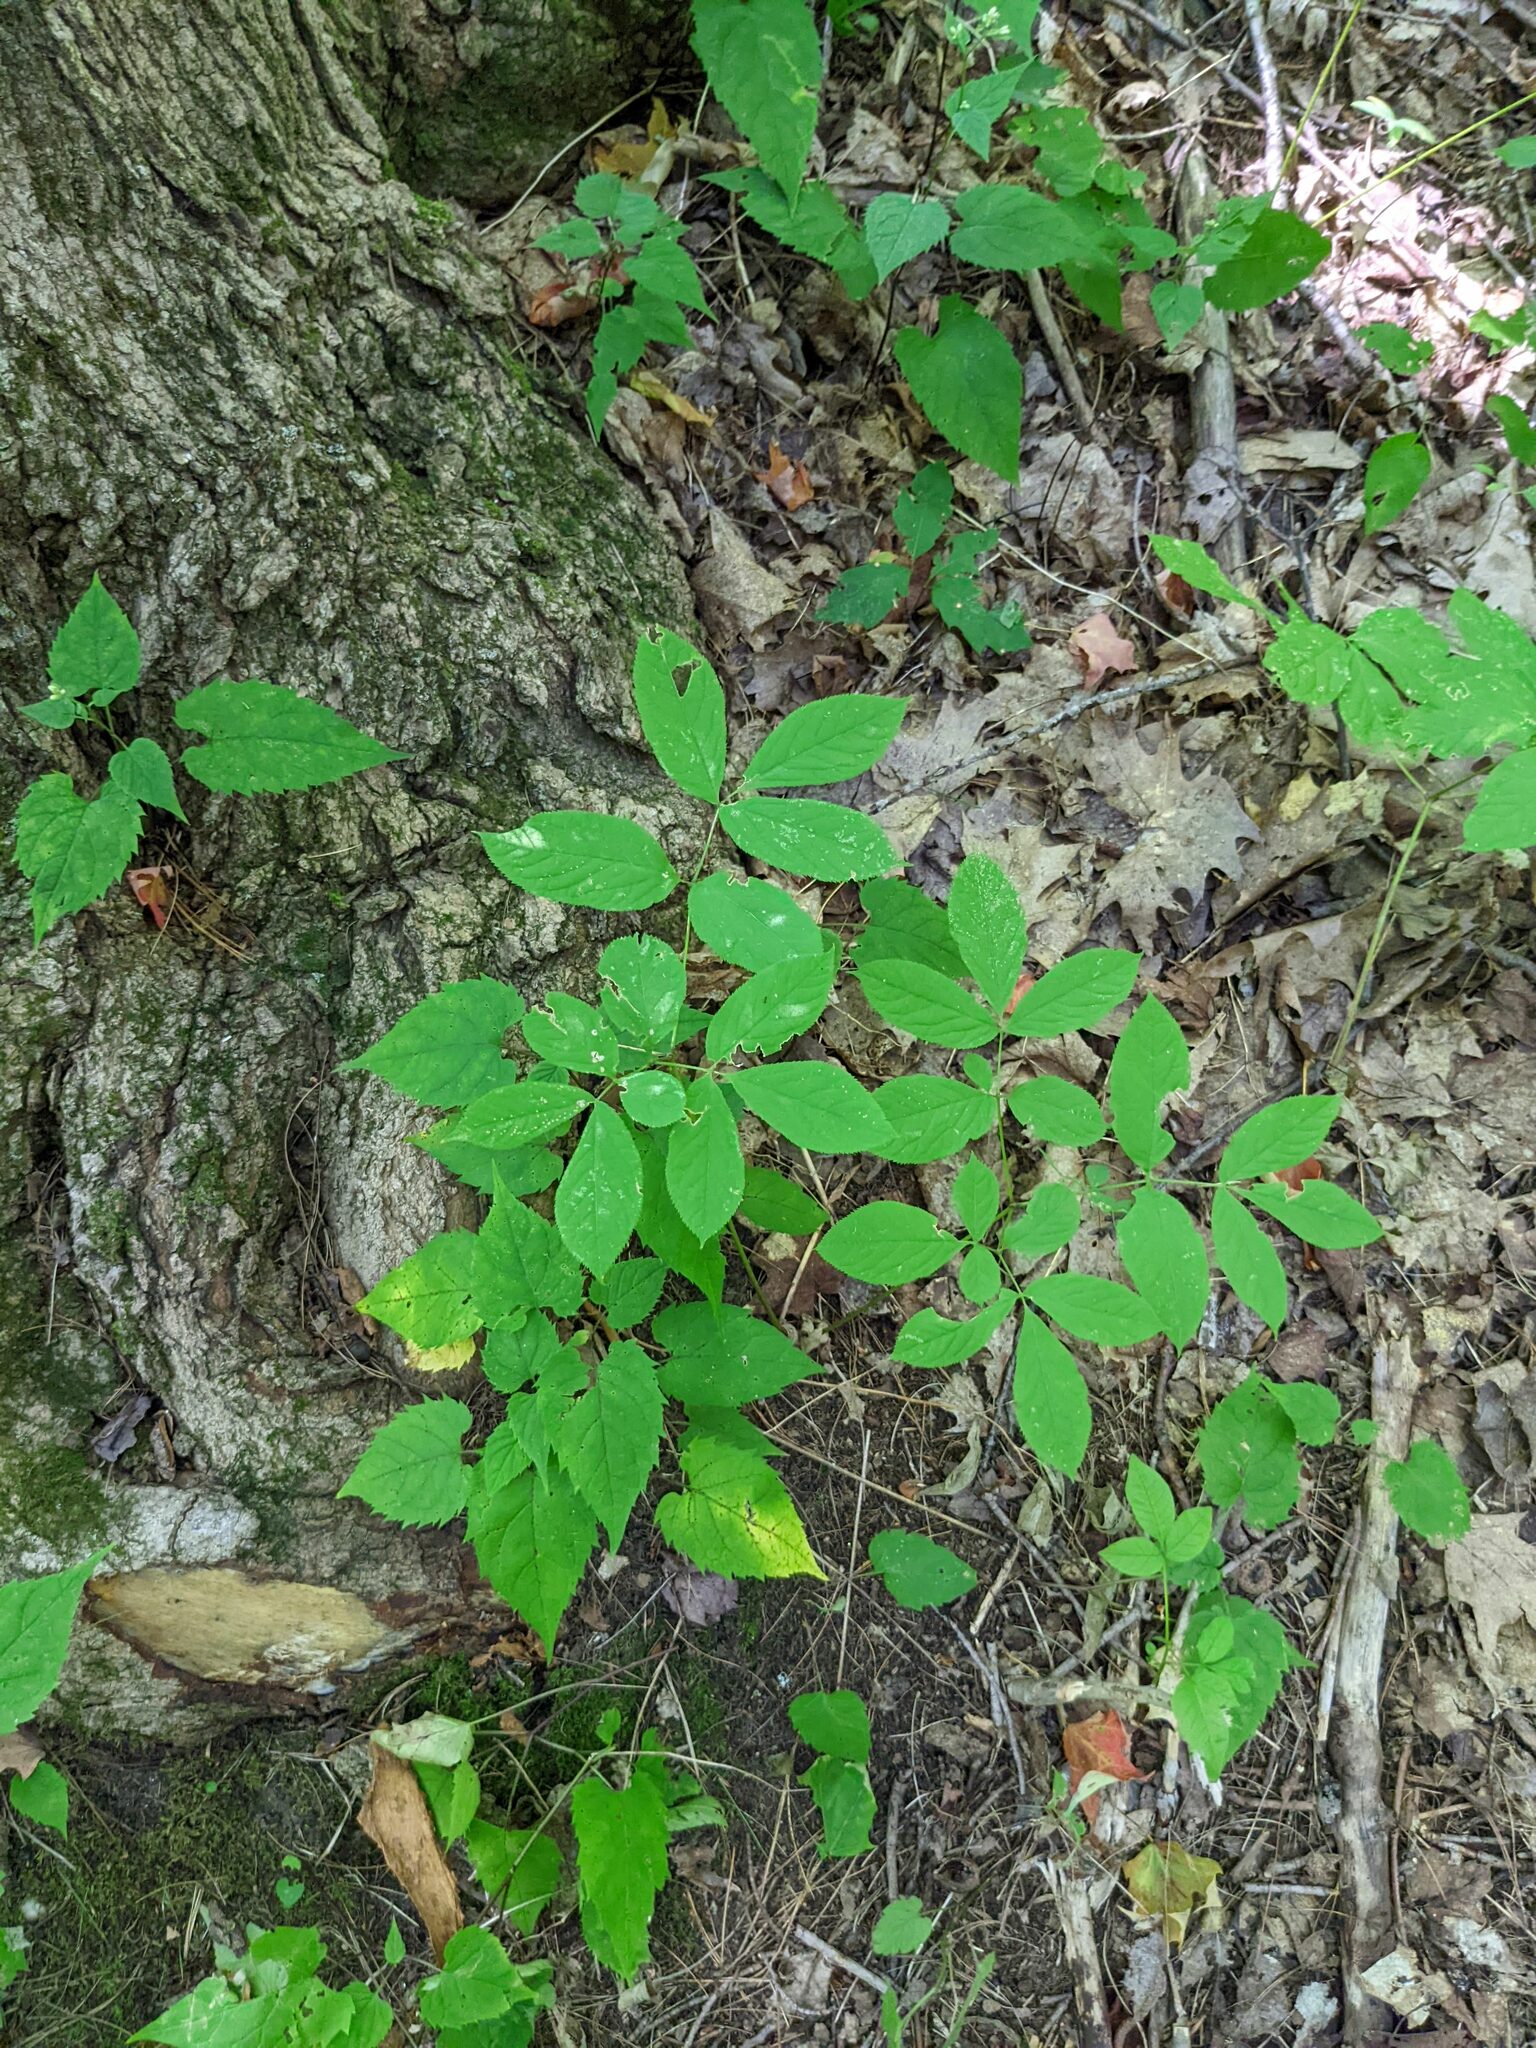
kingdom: Plantae
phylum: Tracheophyta
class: Magnoliopsida
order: Apiales
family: Araliaceae
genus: Aralia
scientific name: Aralia nudicaulis
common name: Wild sarsaparilla
